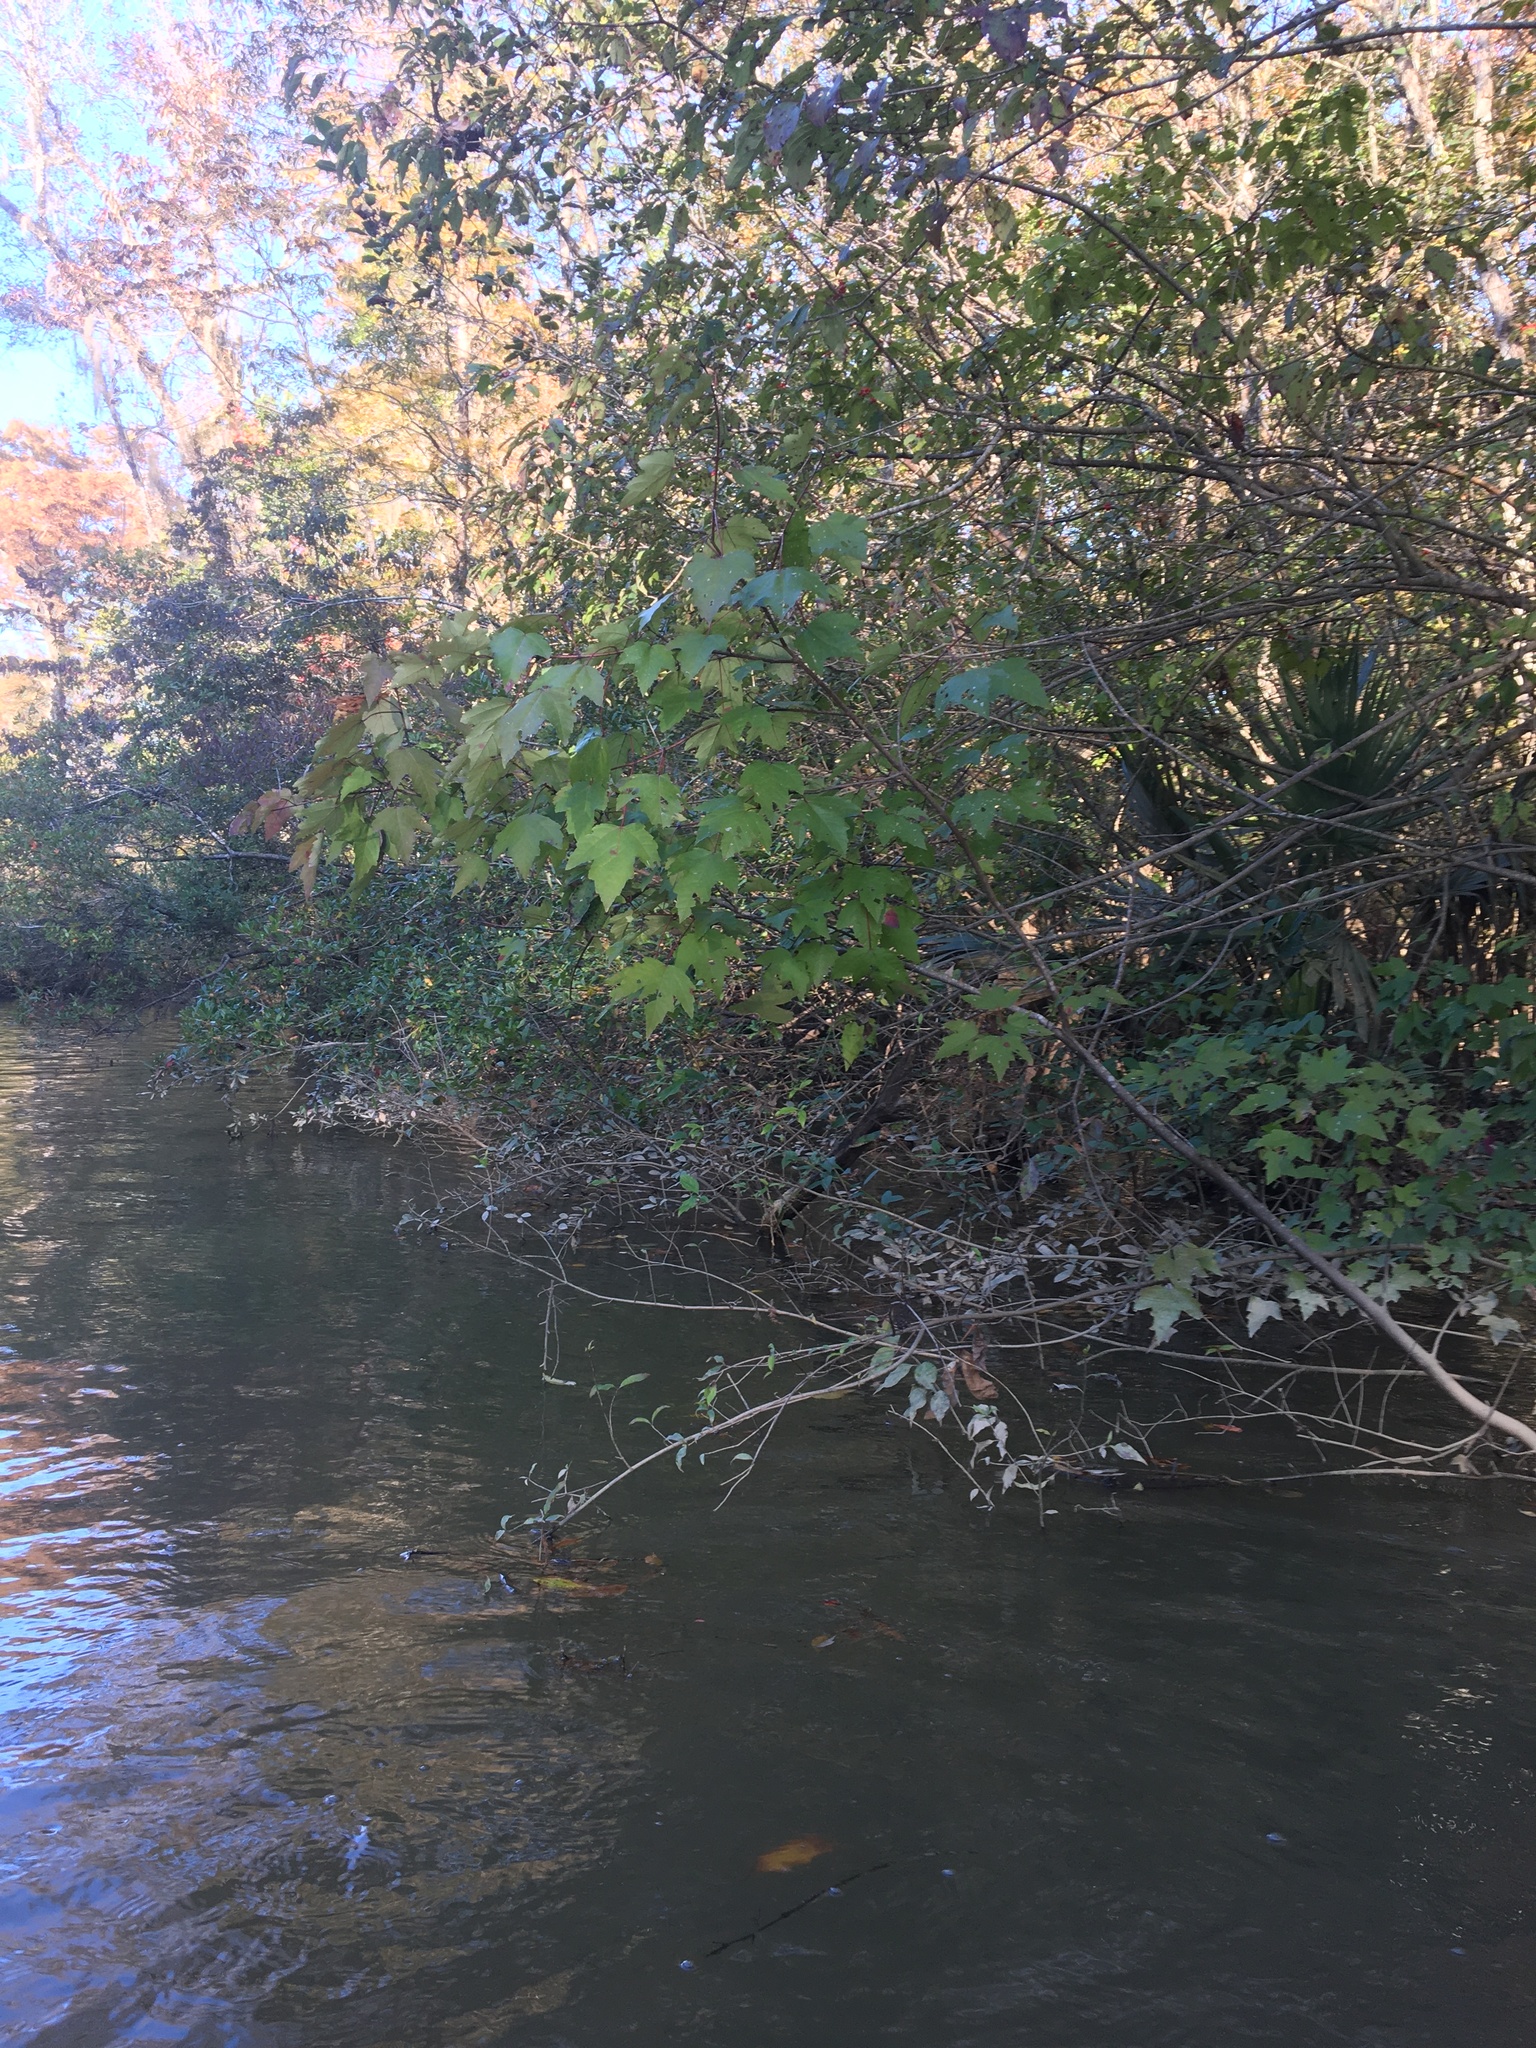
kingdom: Plantae
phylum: Tracheophyta
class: Magnoliopsida
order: Sapindales
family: Sapindaceae
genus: Acer
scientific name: Acer rubrum
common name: Red maple
